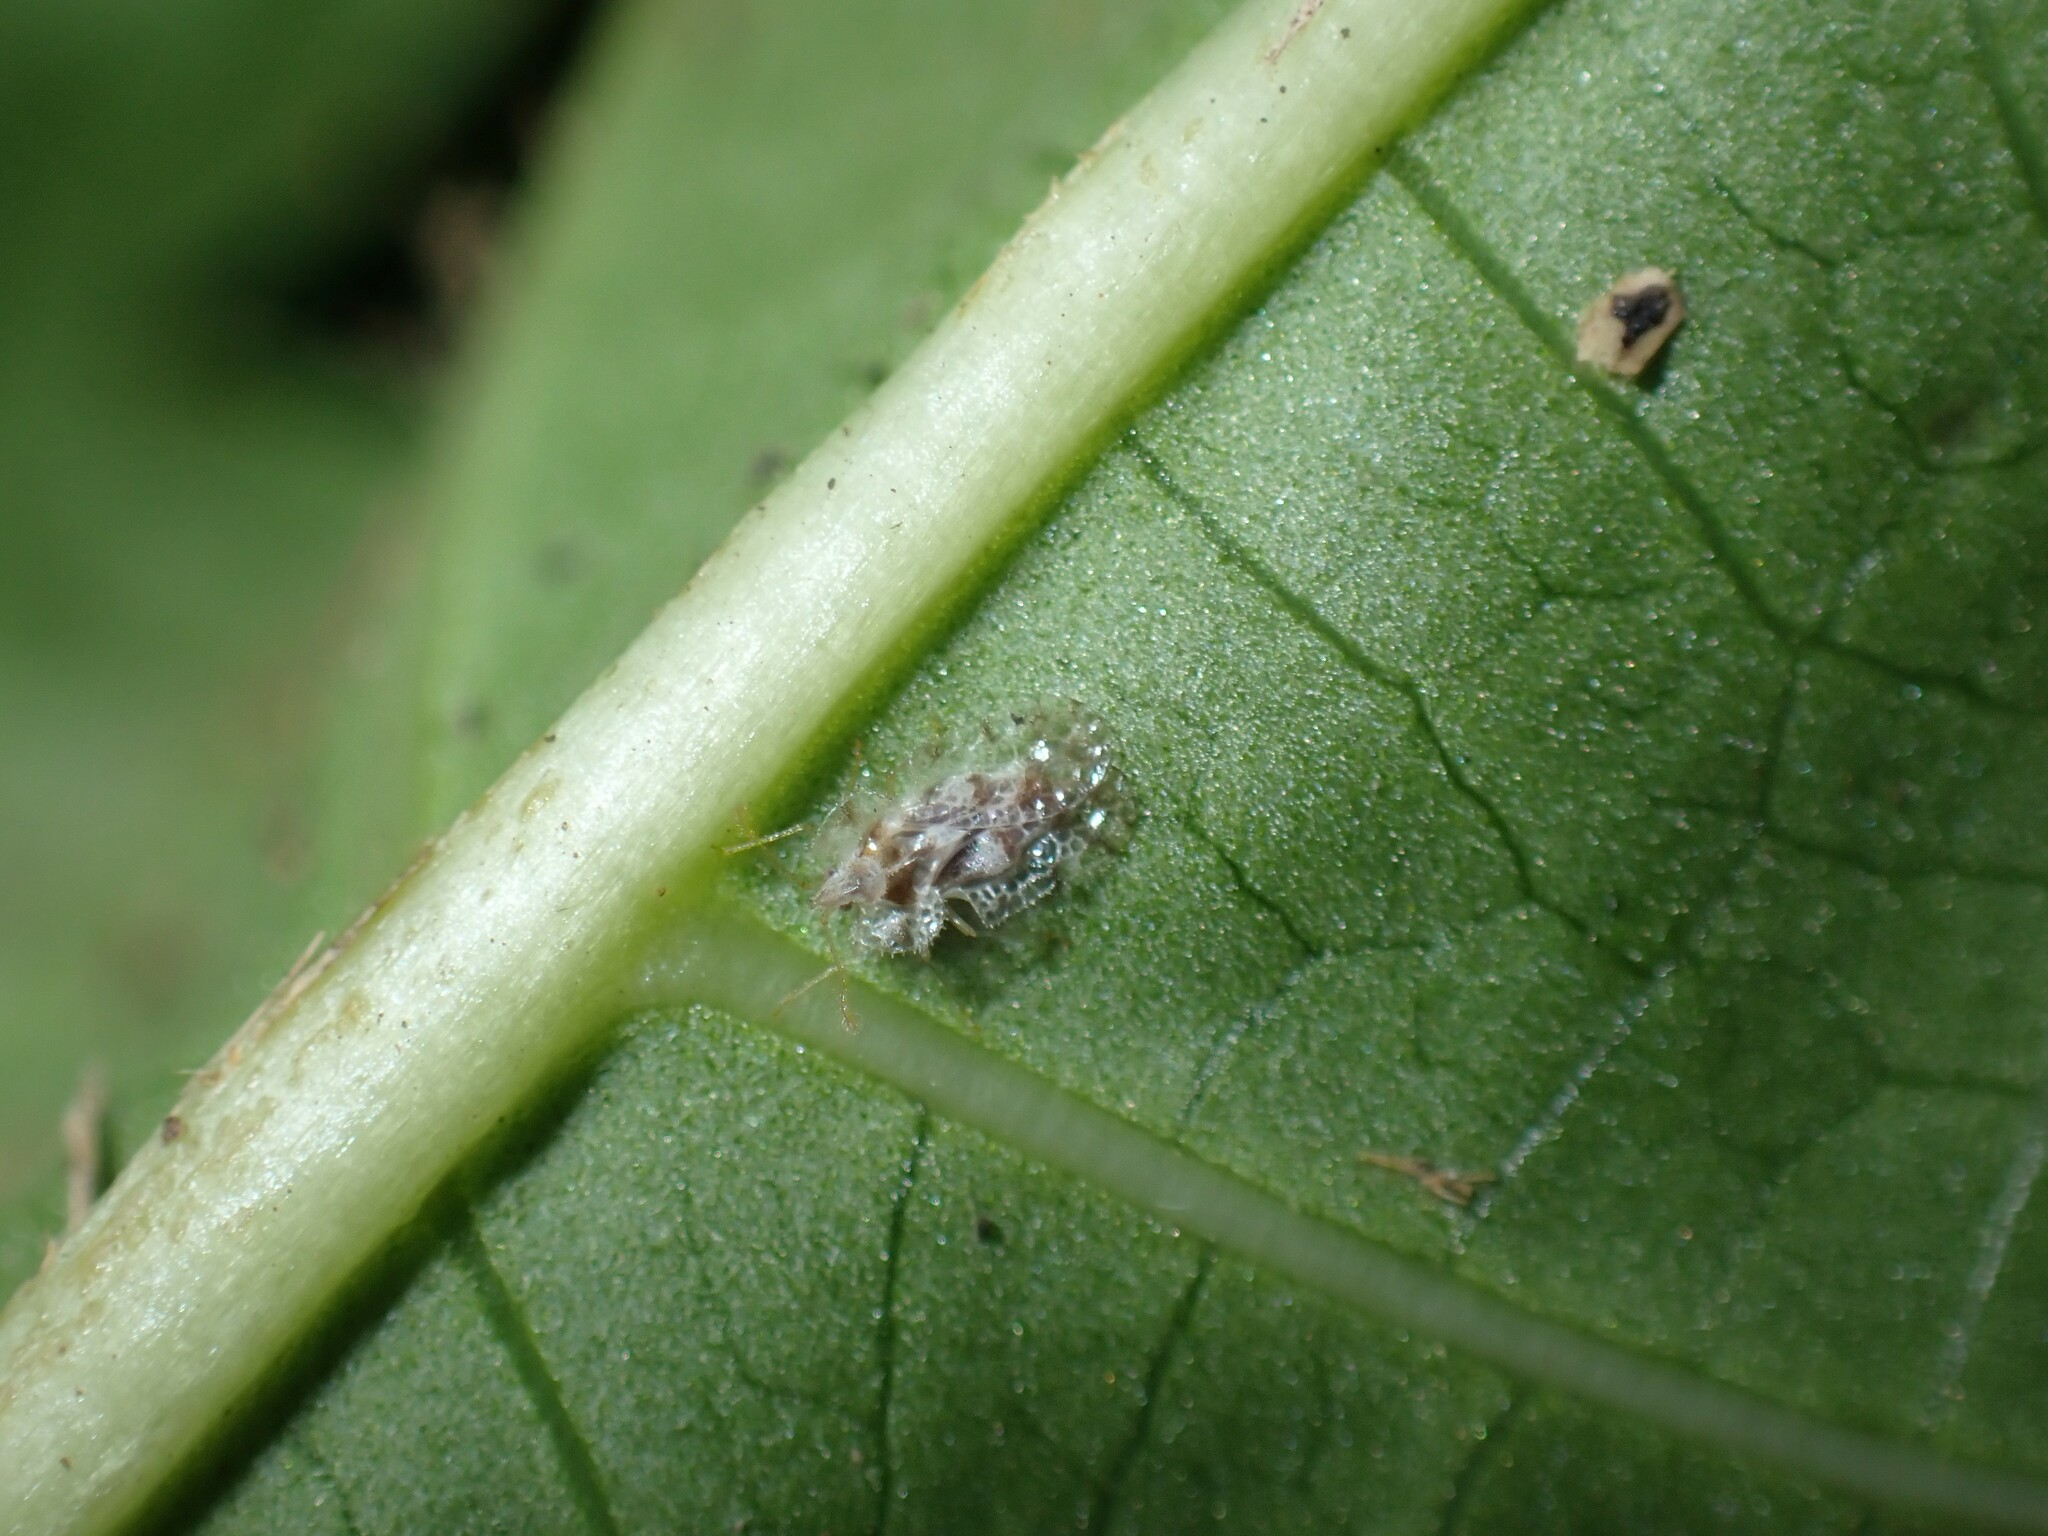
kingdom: Animalia
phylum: Arthropoda
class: Insecta
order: Hemiptera
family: Tingidae
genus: Corythucha
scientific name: Corythucha gossypii
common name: Cotton lace bug
